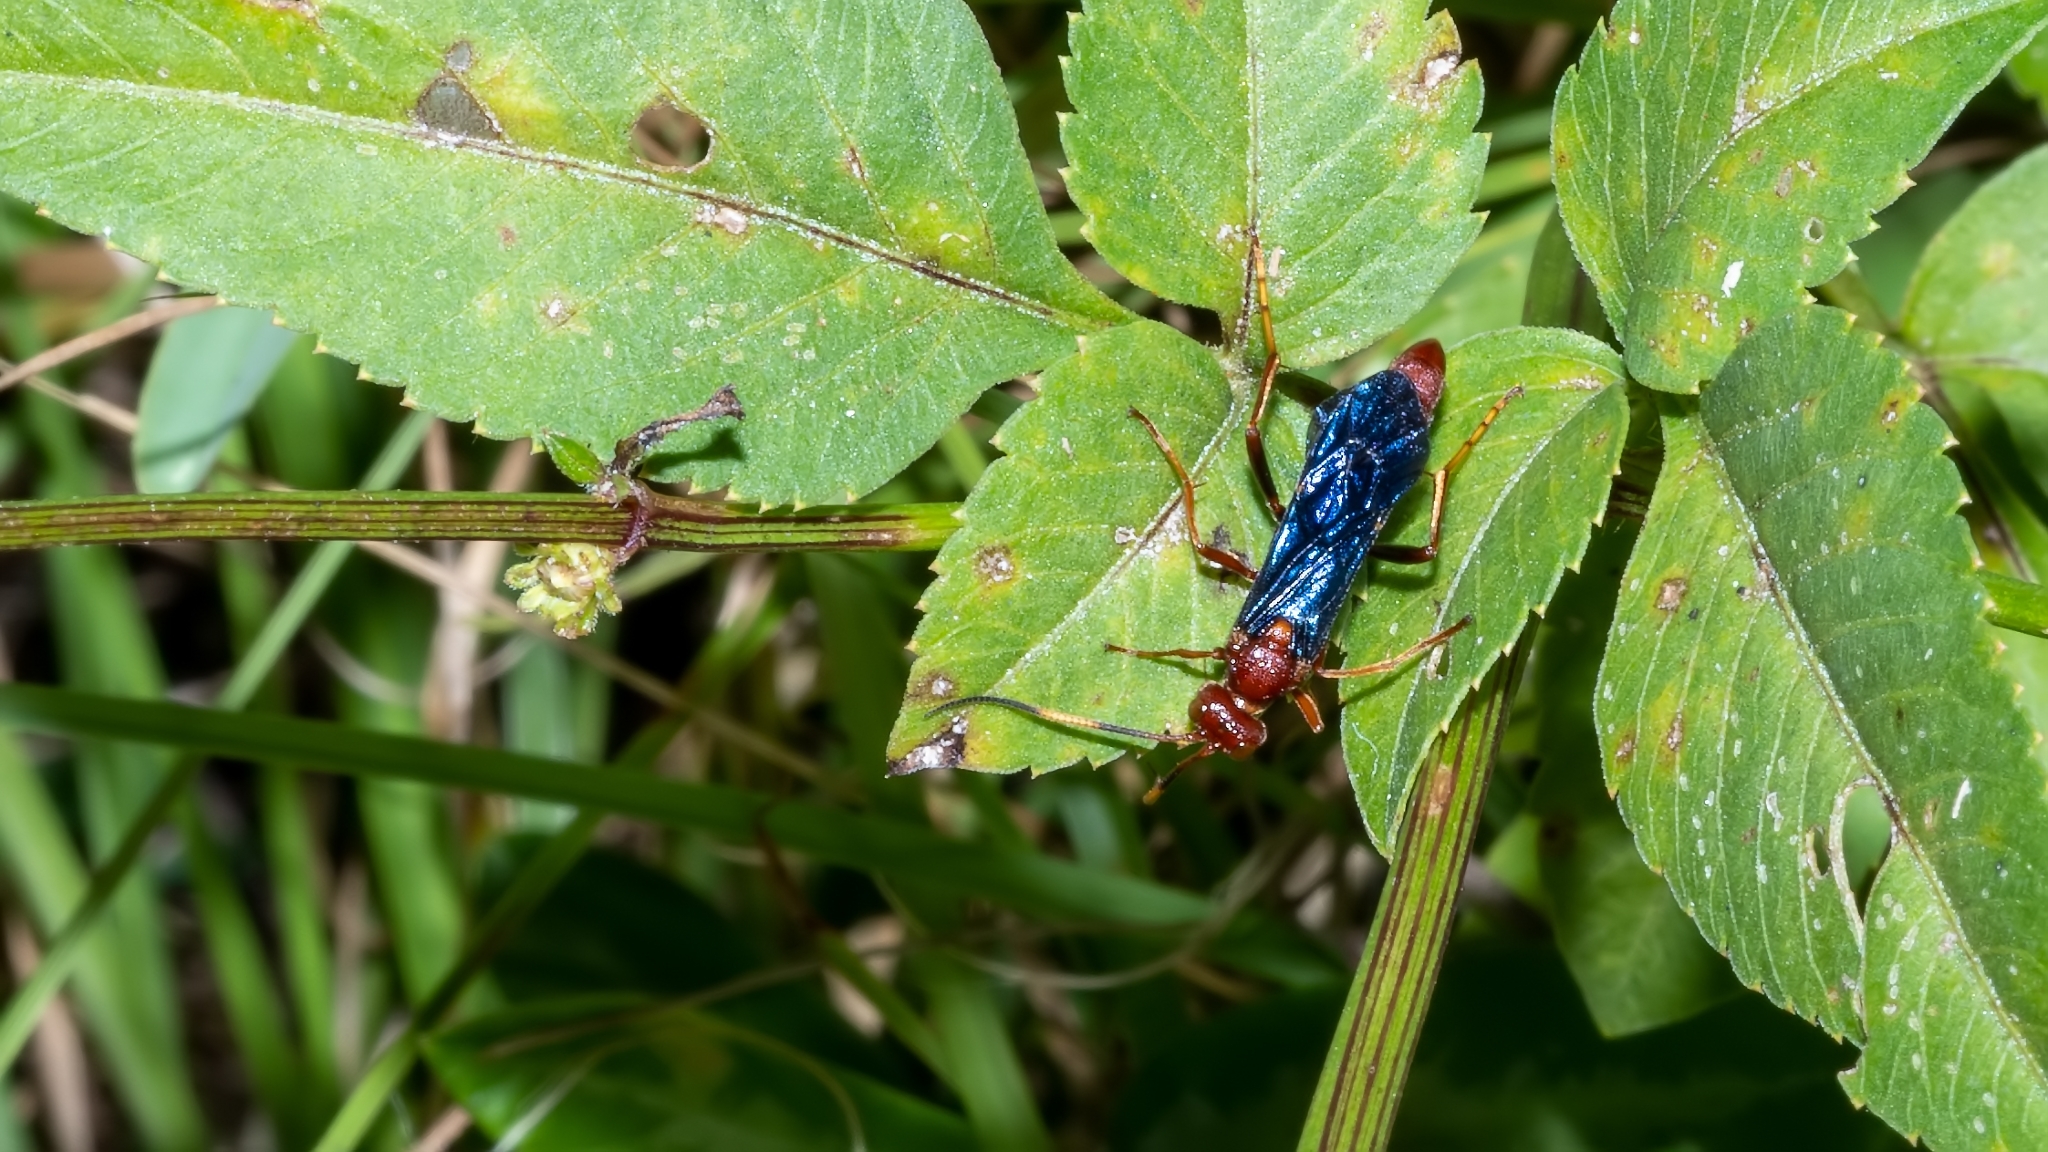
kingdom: Animalia
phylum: Arthropoda
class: Insecta
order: Hymenoptera
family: Ichneumonidae
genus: Trogomorpha
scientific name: Trogomorpha trogiformis
